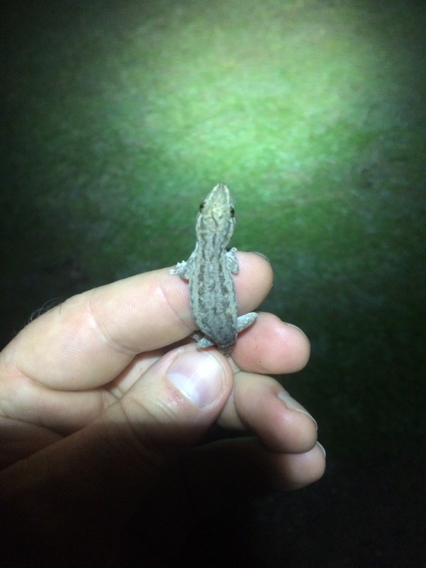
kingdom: Animalia
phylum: Chordata
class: Squamata
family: Gekkonidae
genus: Hemidactylus
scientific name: Hemidactylus frenatus
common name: Common house gecko
